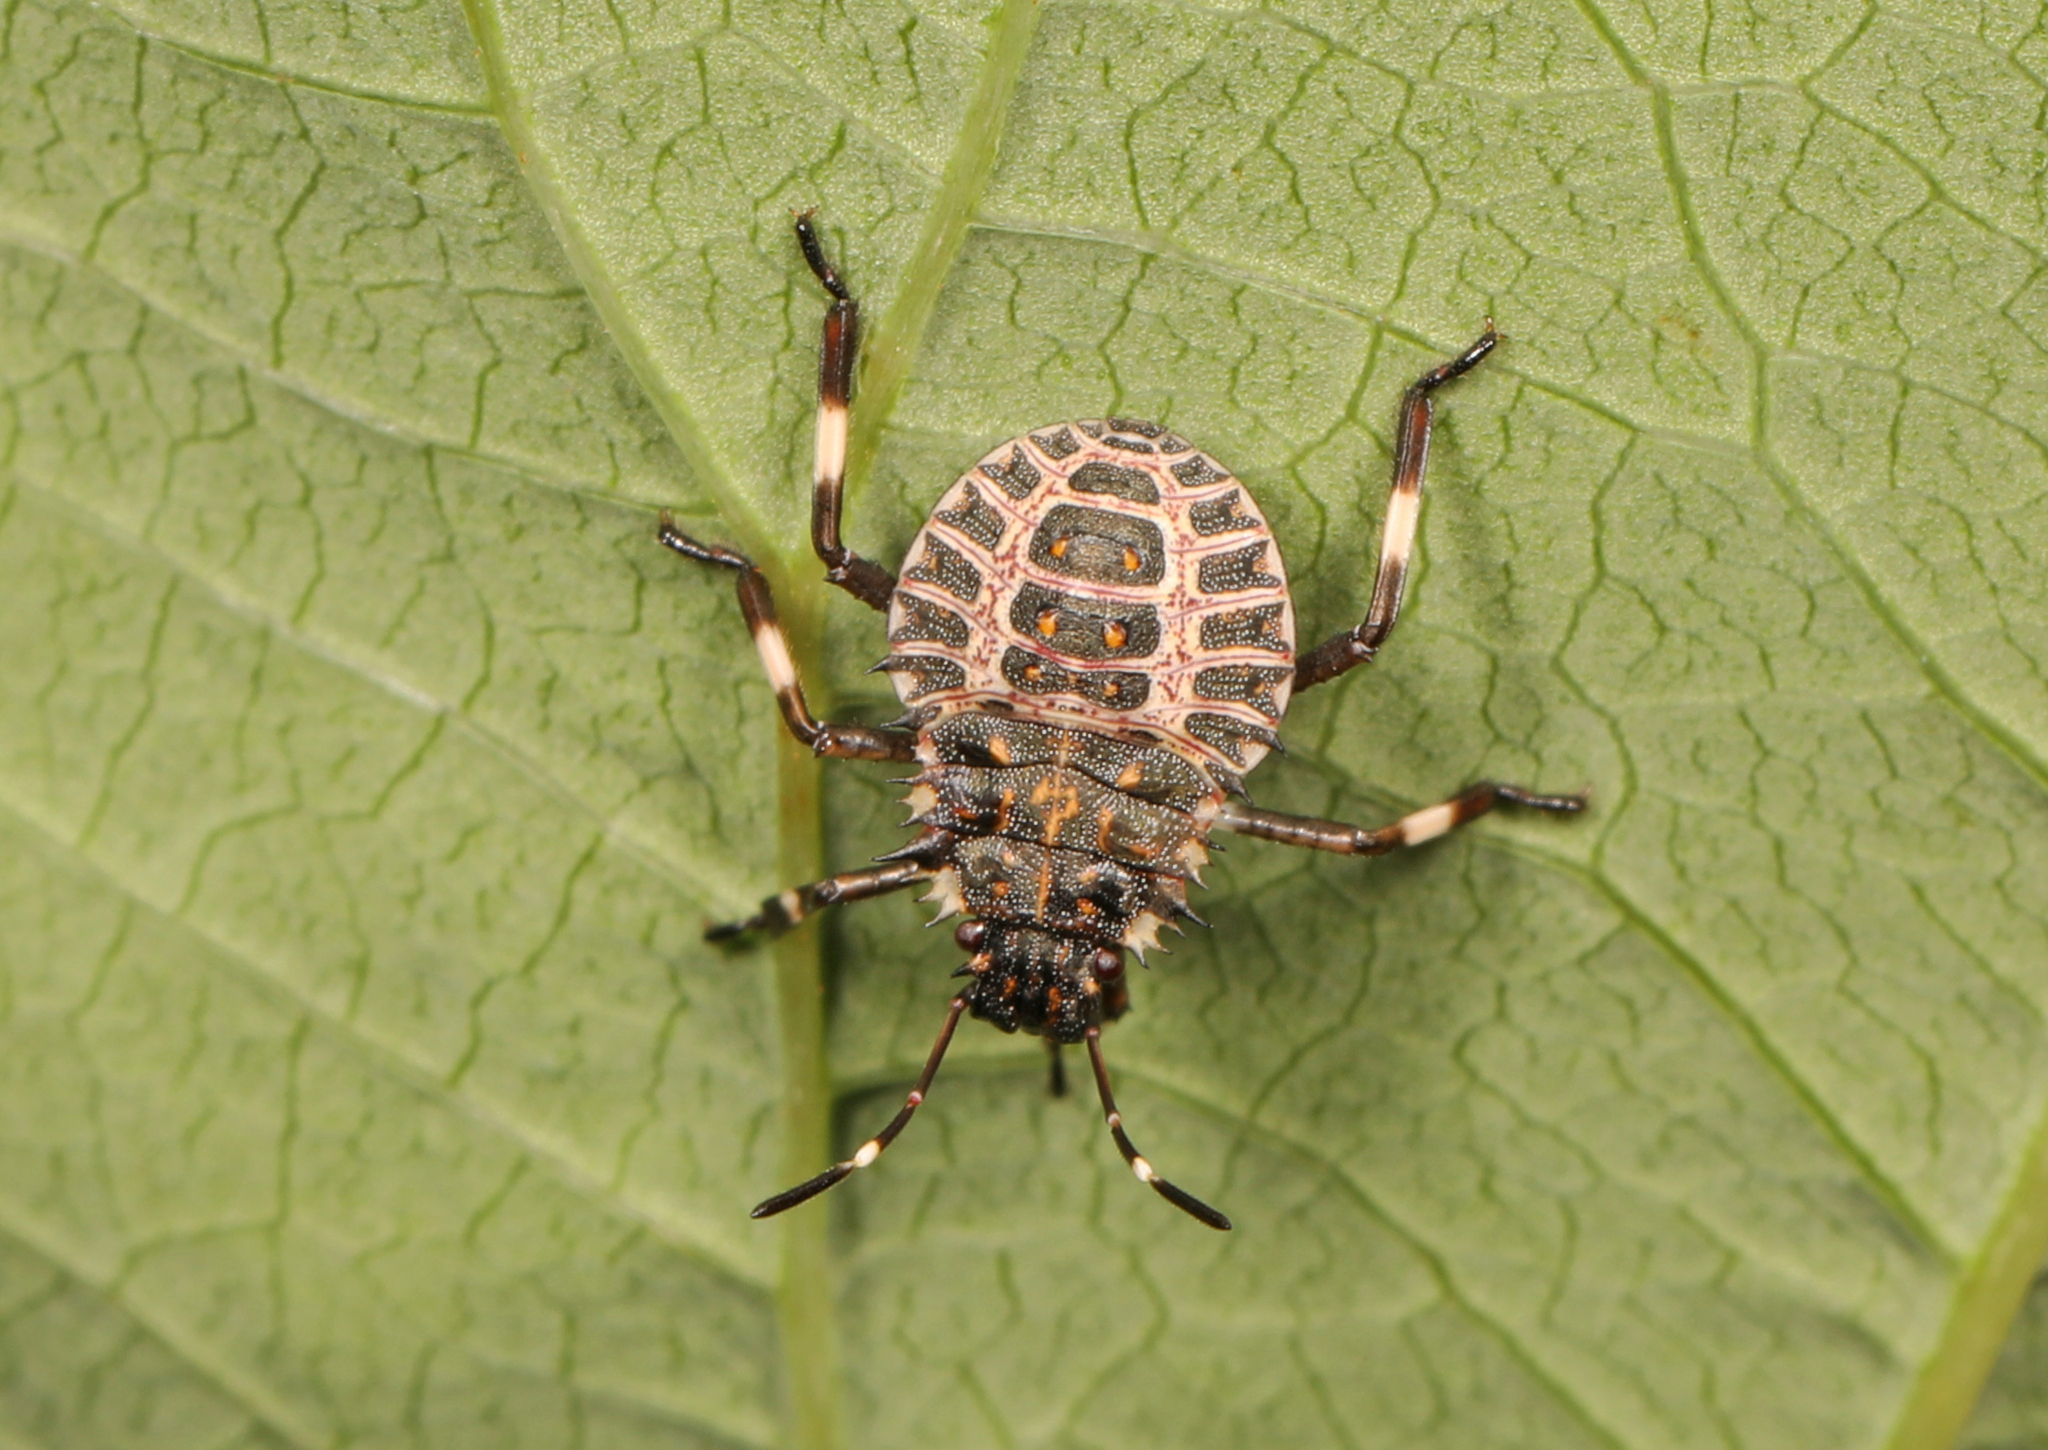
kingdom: Animalia
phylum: Arthropoda
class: Insecta
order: Hemiptera
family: Pentatomidae
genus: Halyomorpha
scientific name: Halyomorpha halys
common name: Brown marmorated stink bug
